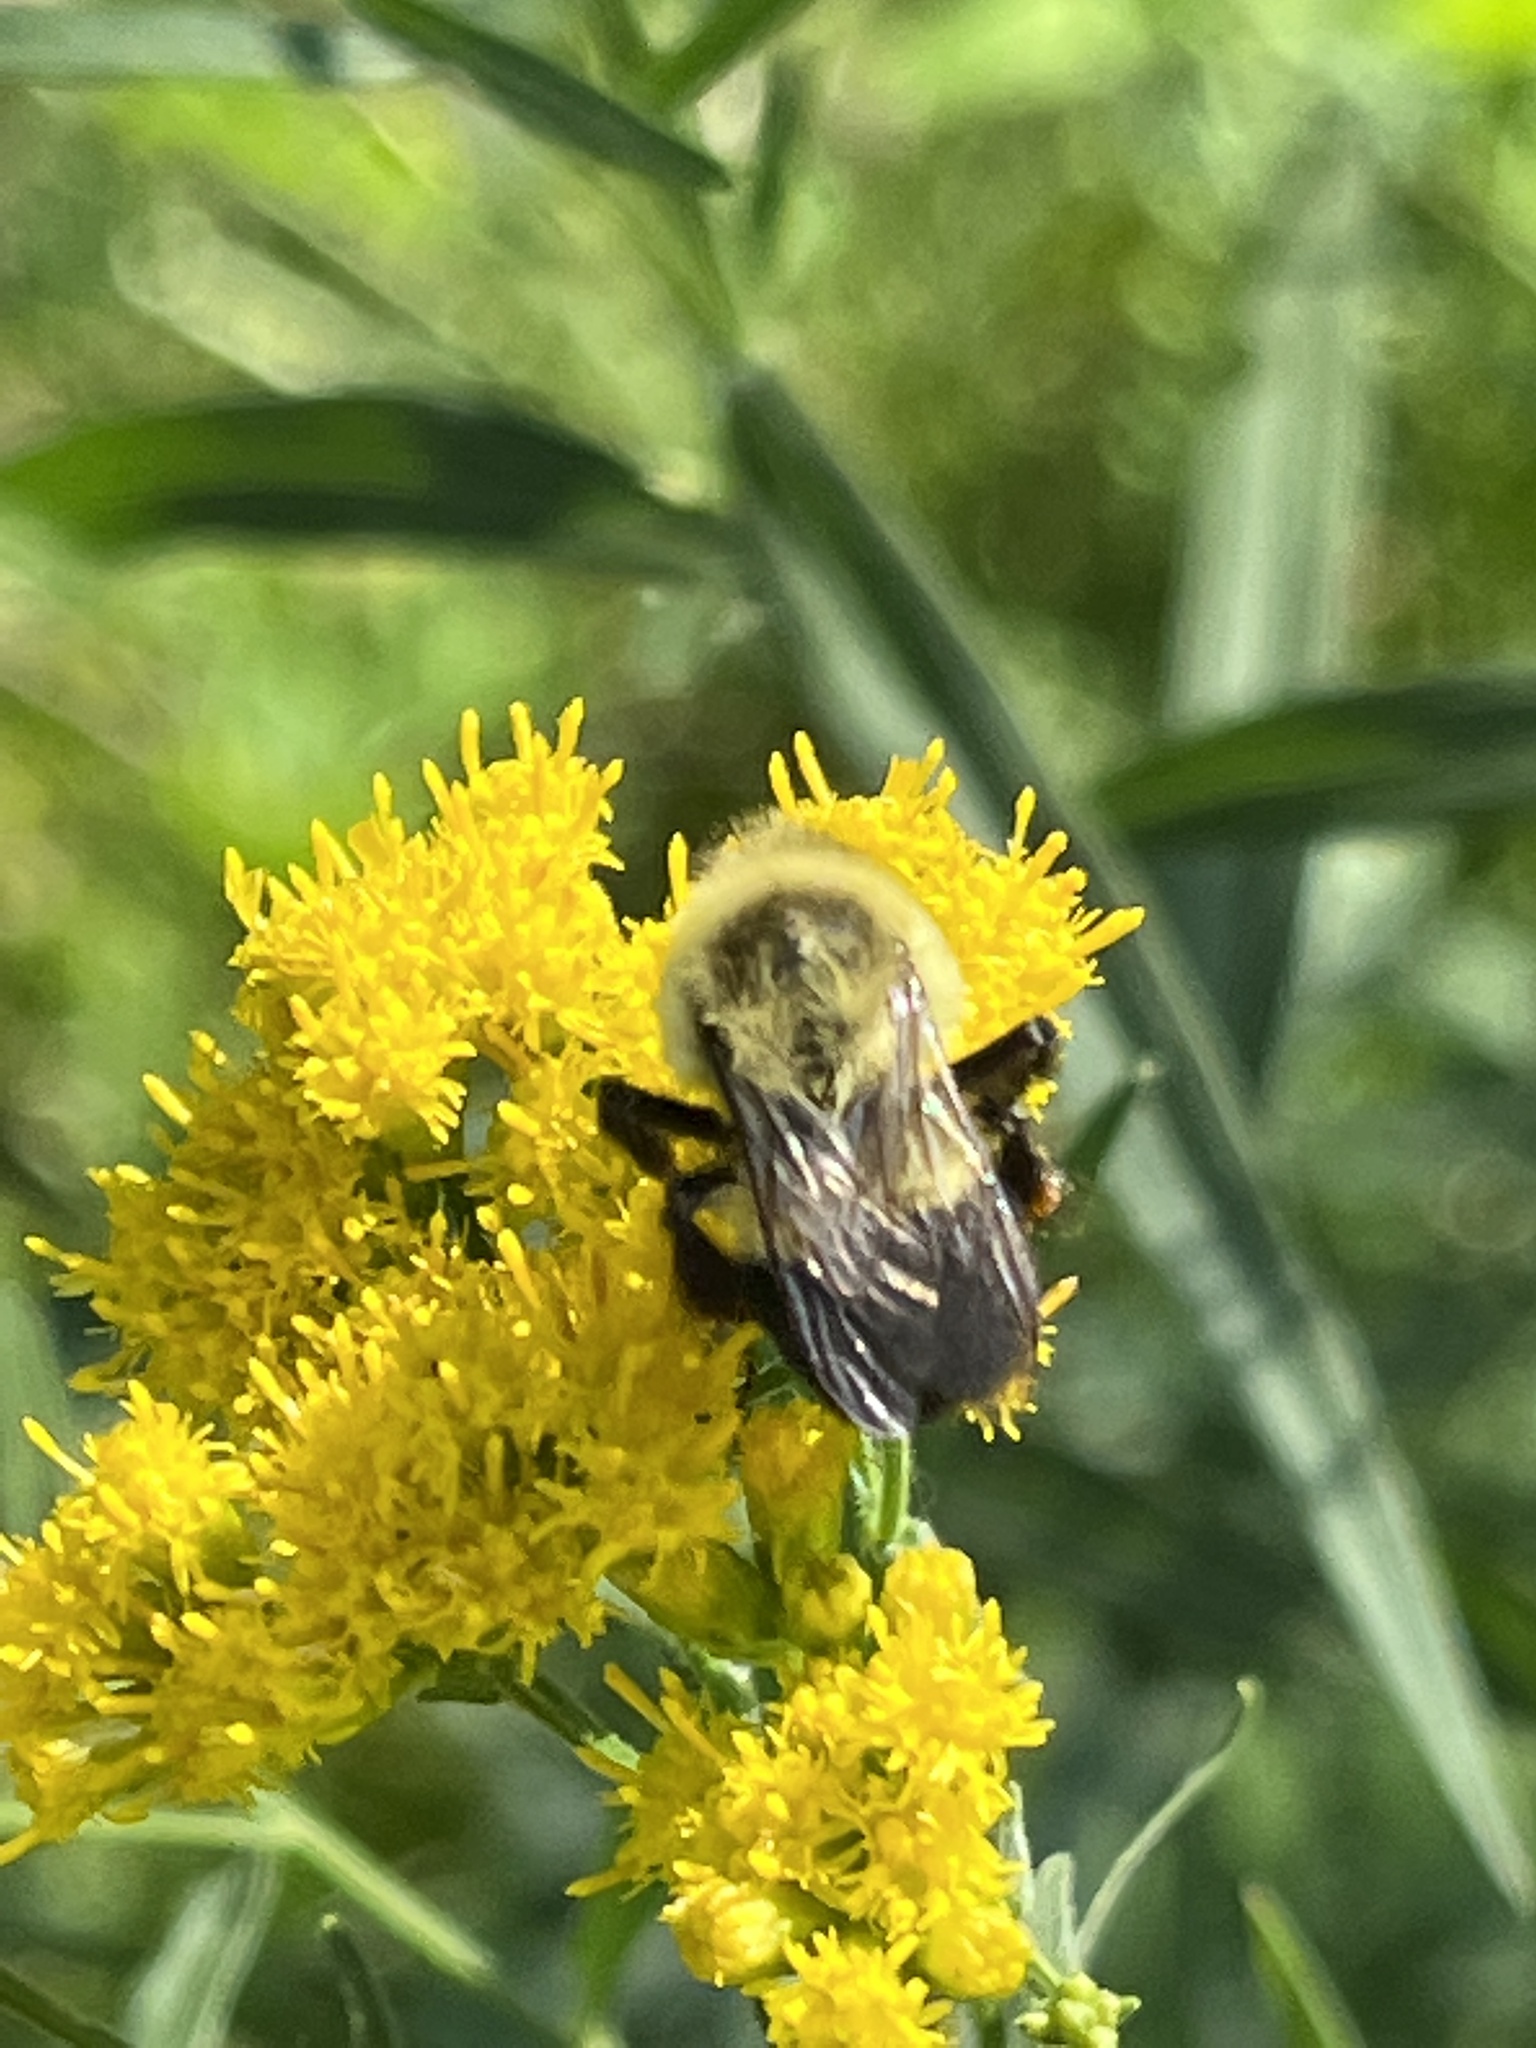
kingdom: Animalia
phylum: Arthropoda
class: Insecta
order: Hymenoptera
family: Apidae
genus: Bombus
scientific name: Bombus impatiens
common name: Common eastern bumble bee
